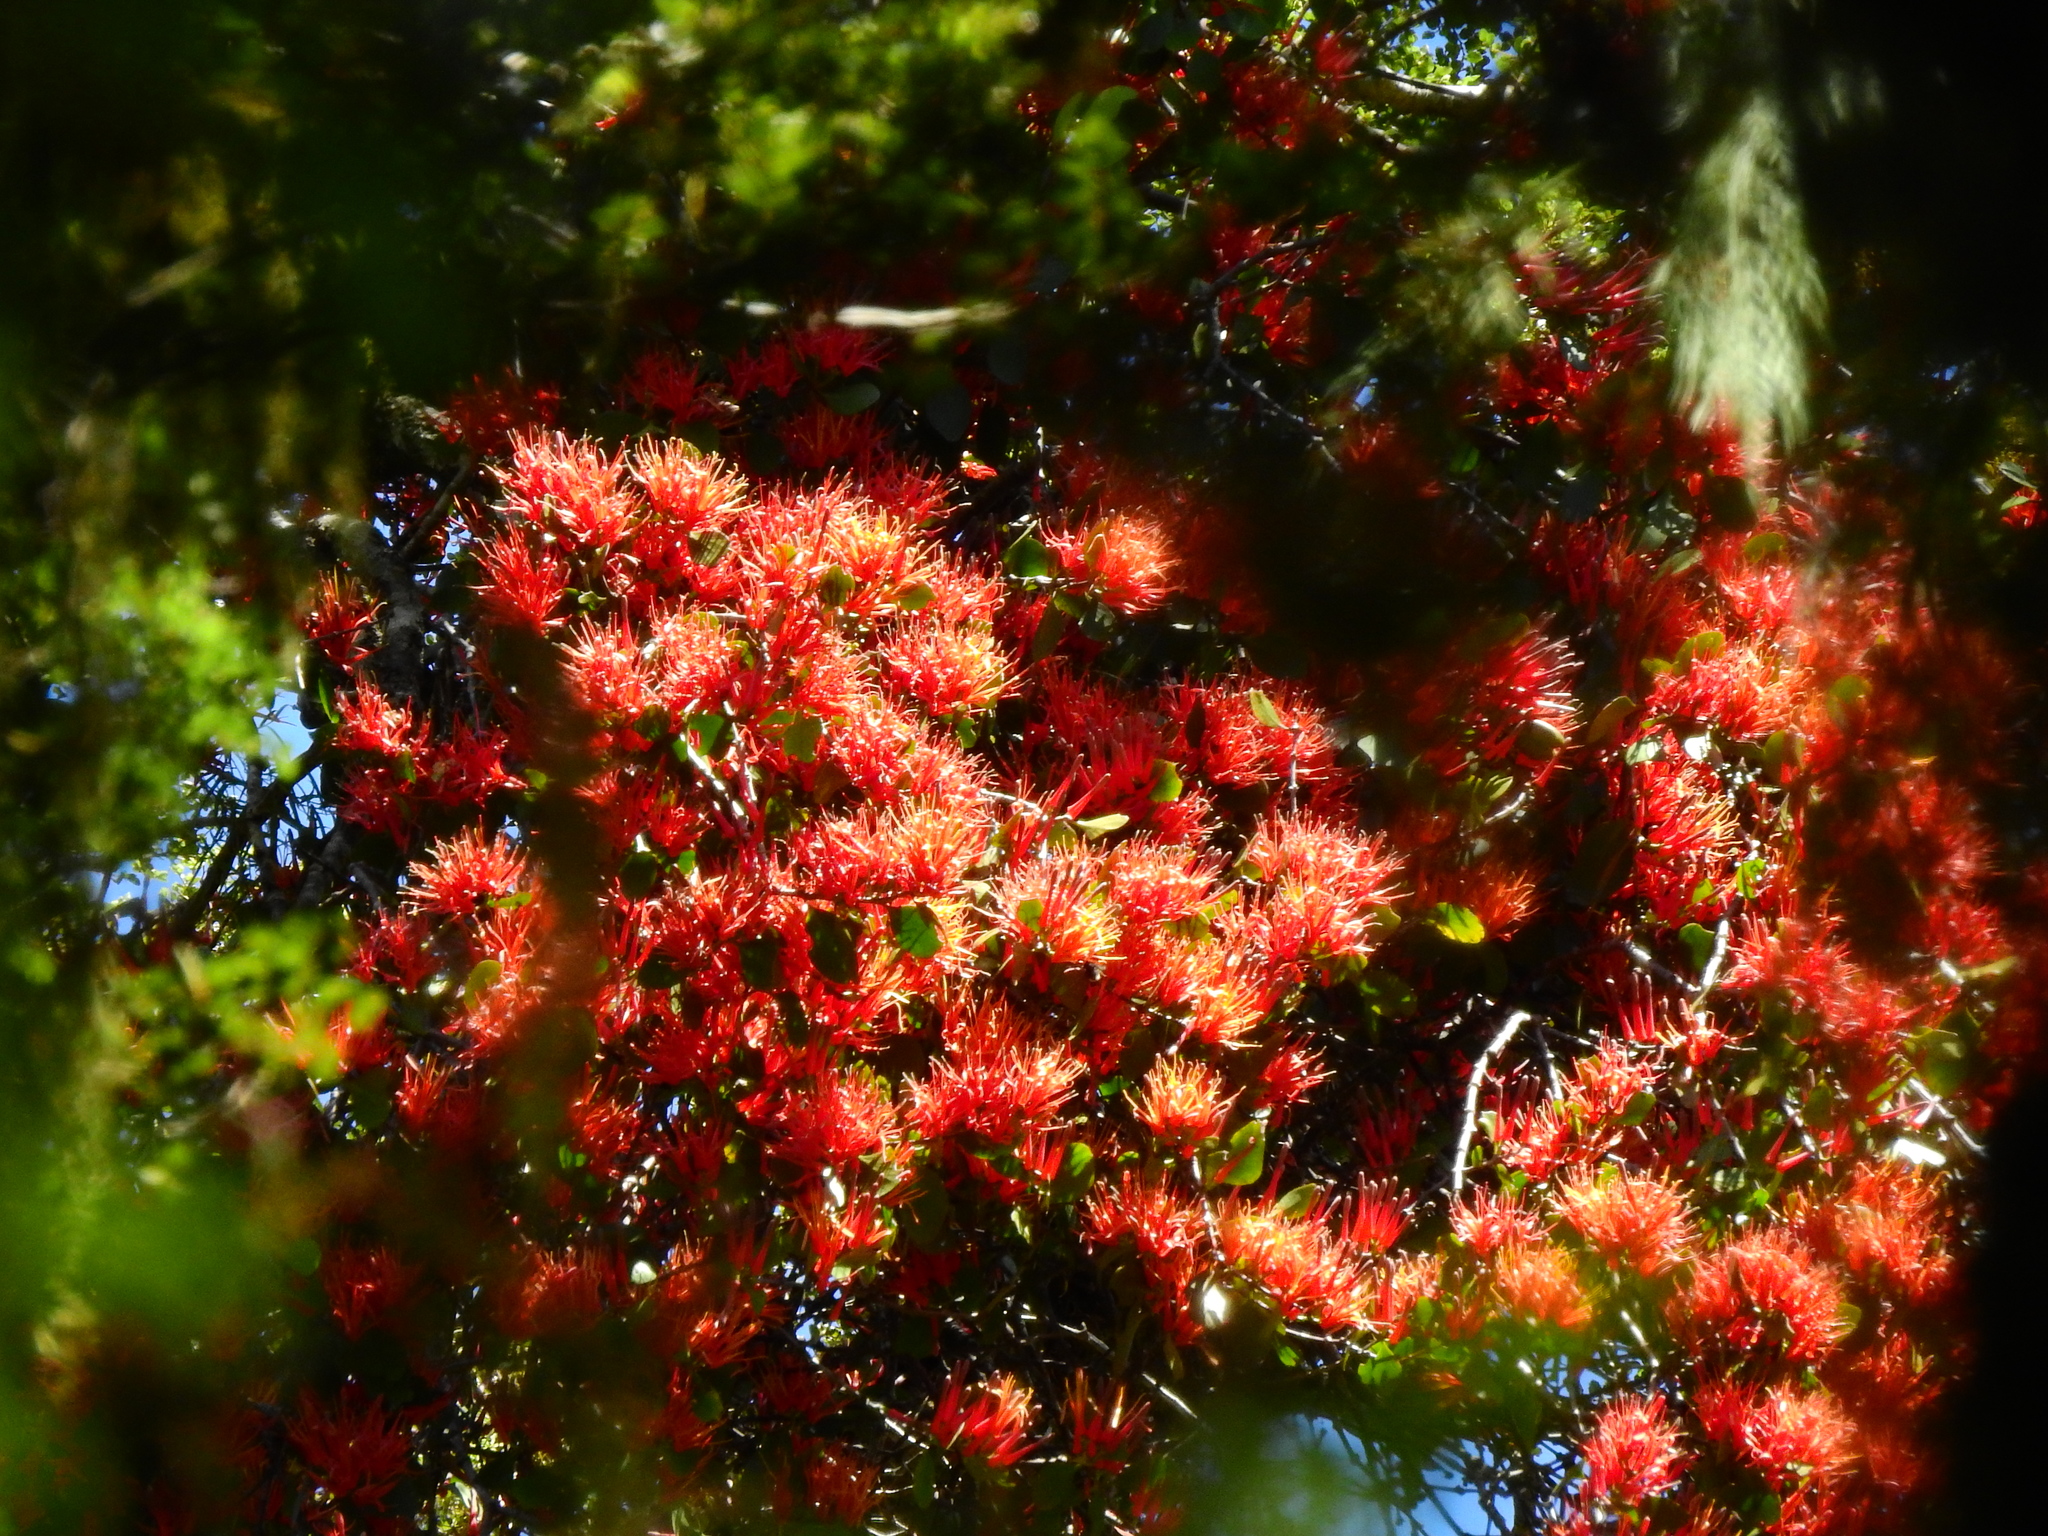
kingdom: Plantae
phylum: Tracheophyta
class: Magnoliopsida
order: Santalales
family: Loranthaceae
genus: Peraxilla
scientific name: Peraxilla tetrapetala
